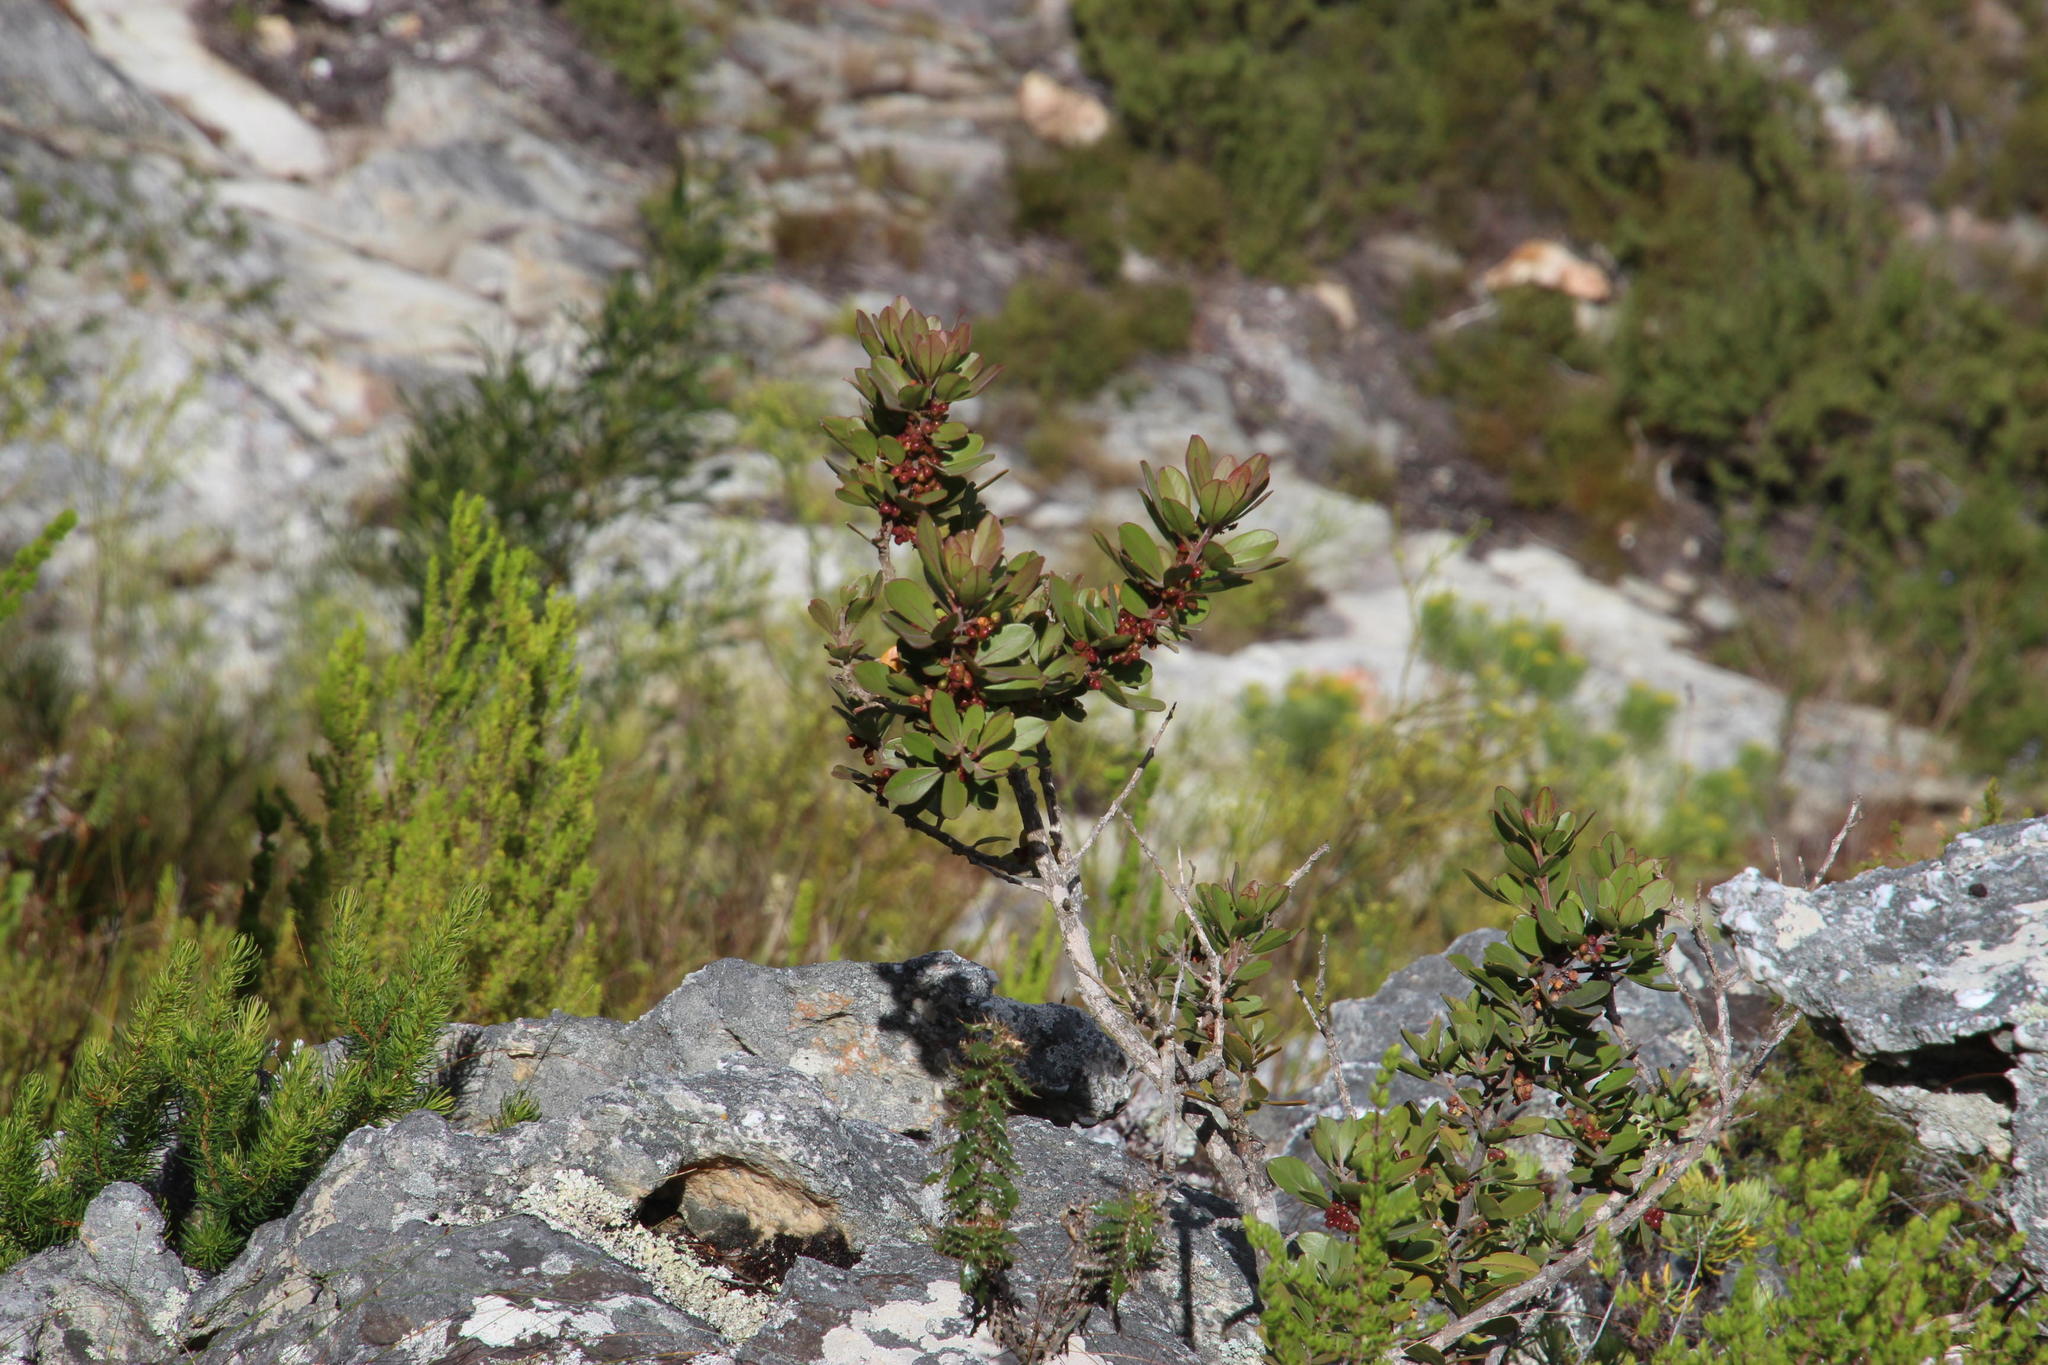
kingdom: Plantae
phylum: Tracheophyta
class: Magnoliopsida
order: Sapindales
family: Anacardiaceae
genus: Searsia
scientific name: Searsia scytophylla
